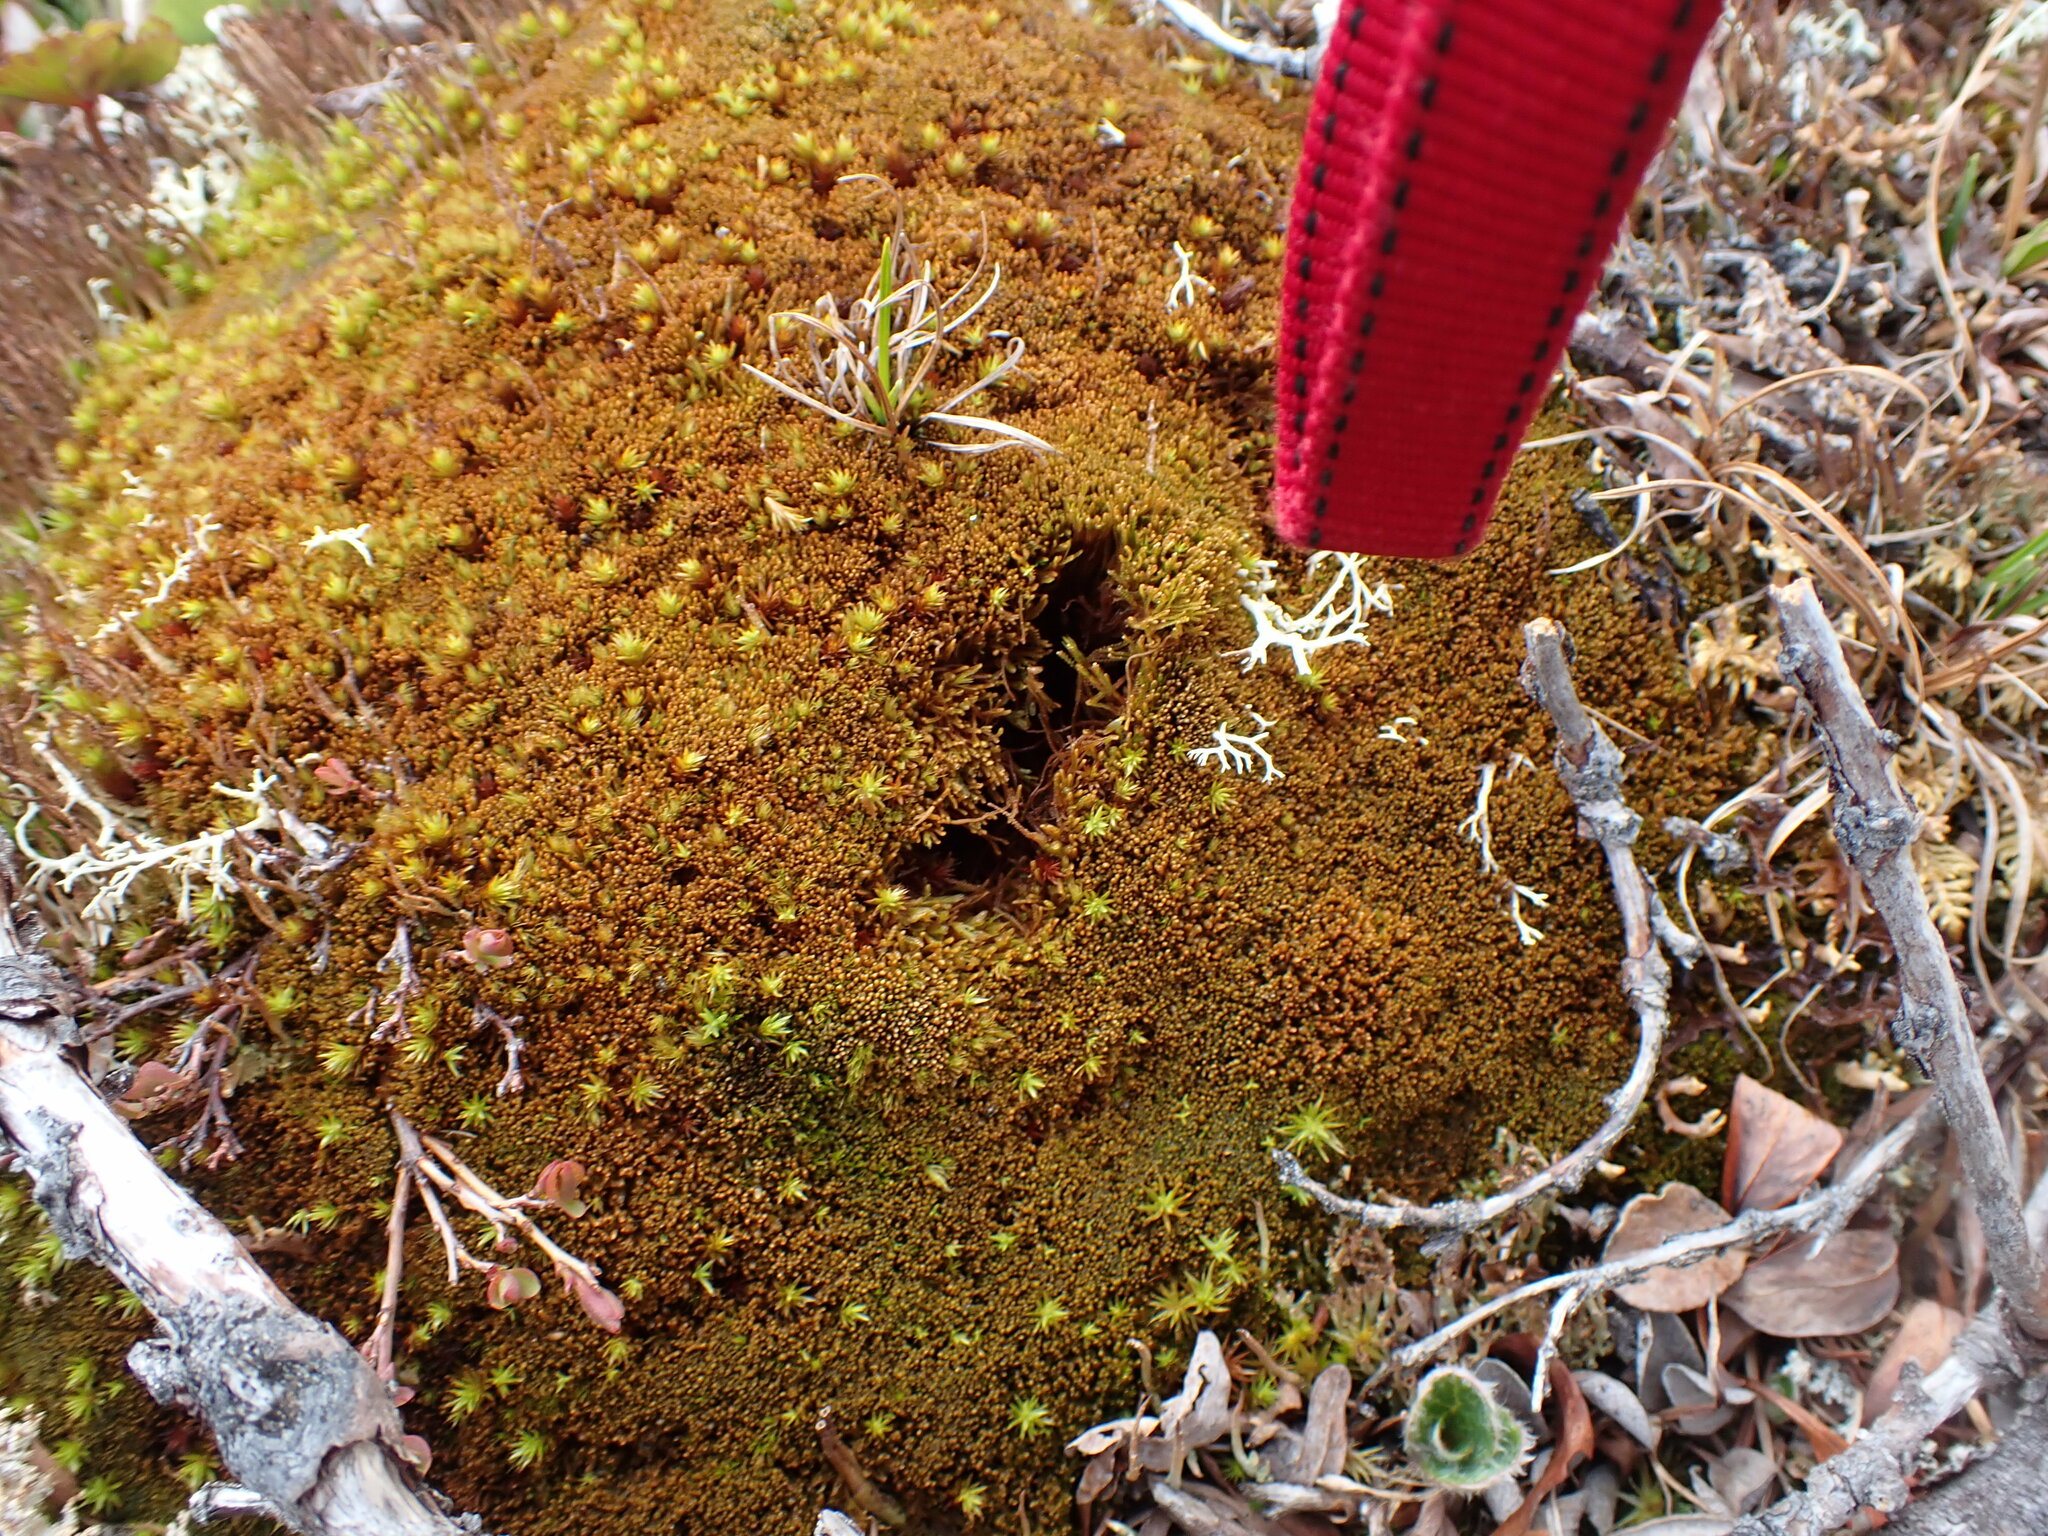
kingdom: Plantae
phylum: Marchantiophyta
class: Jungermanniopsida
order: Jungermanniales
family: Anastrophyllaceae
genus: Sphenolobus
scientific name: Sphenolobus minutus
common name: Comb notchwort
